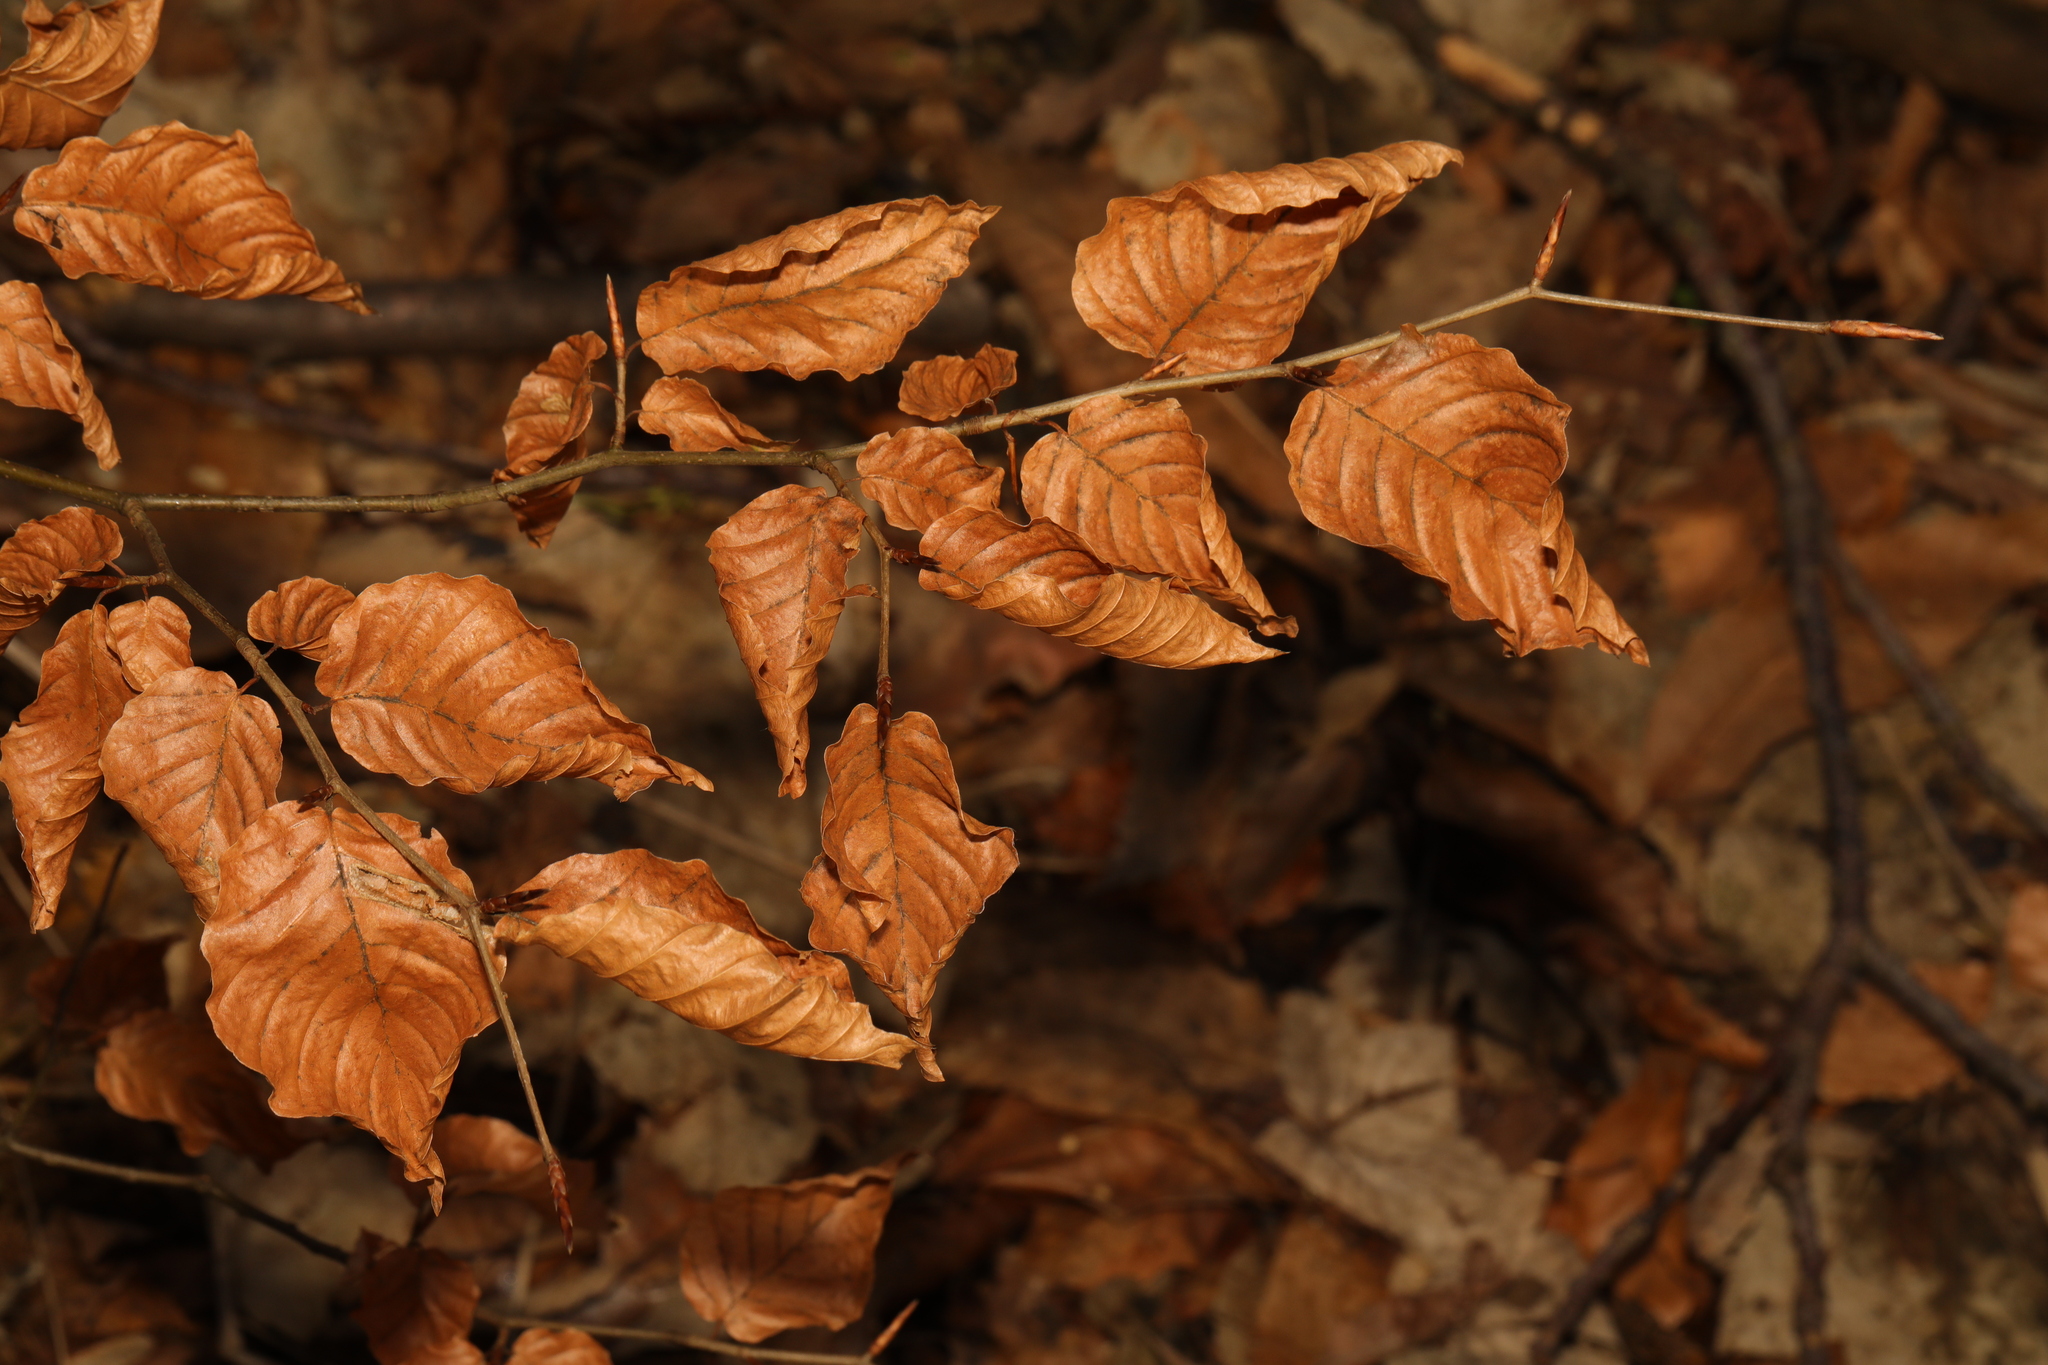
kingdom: Plantae
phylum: Tracheophyta
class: Magnoliopsida
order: Fagales
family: Fagaceae
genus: Fagus
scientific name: Fagus sylvatica
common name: Beech
